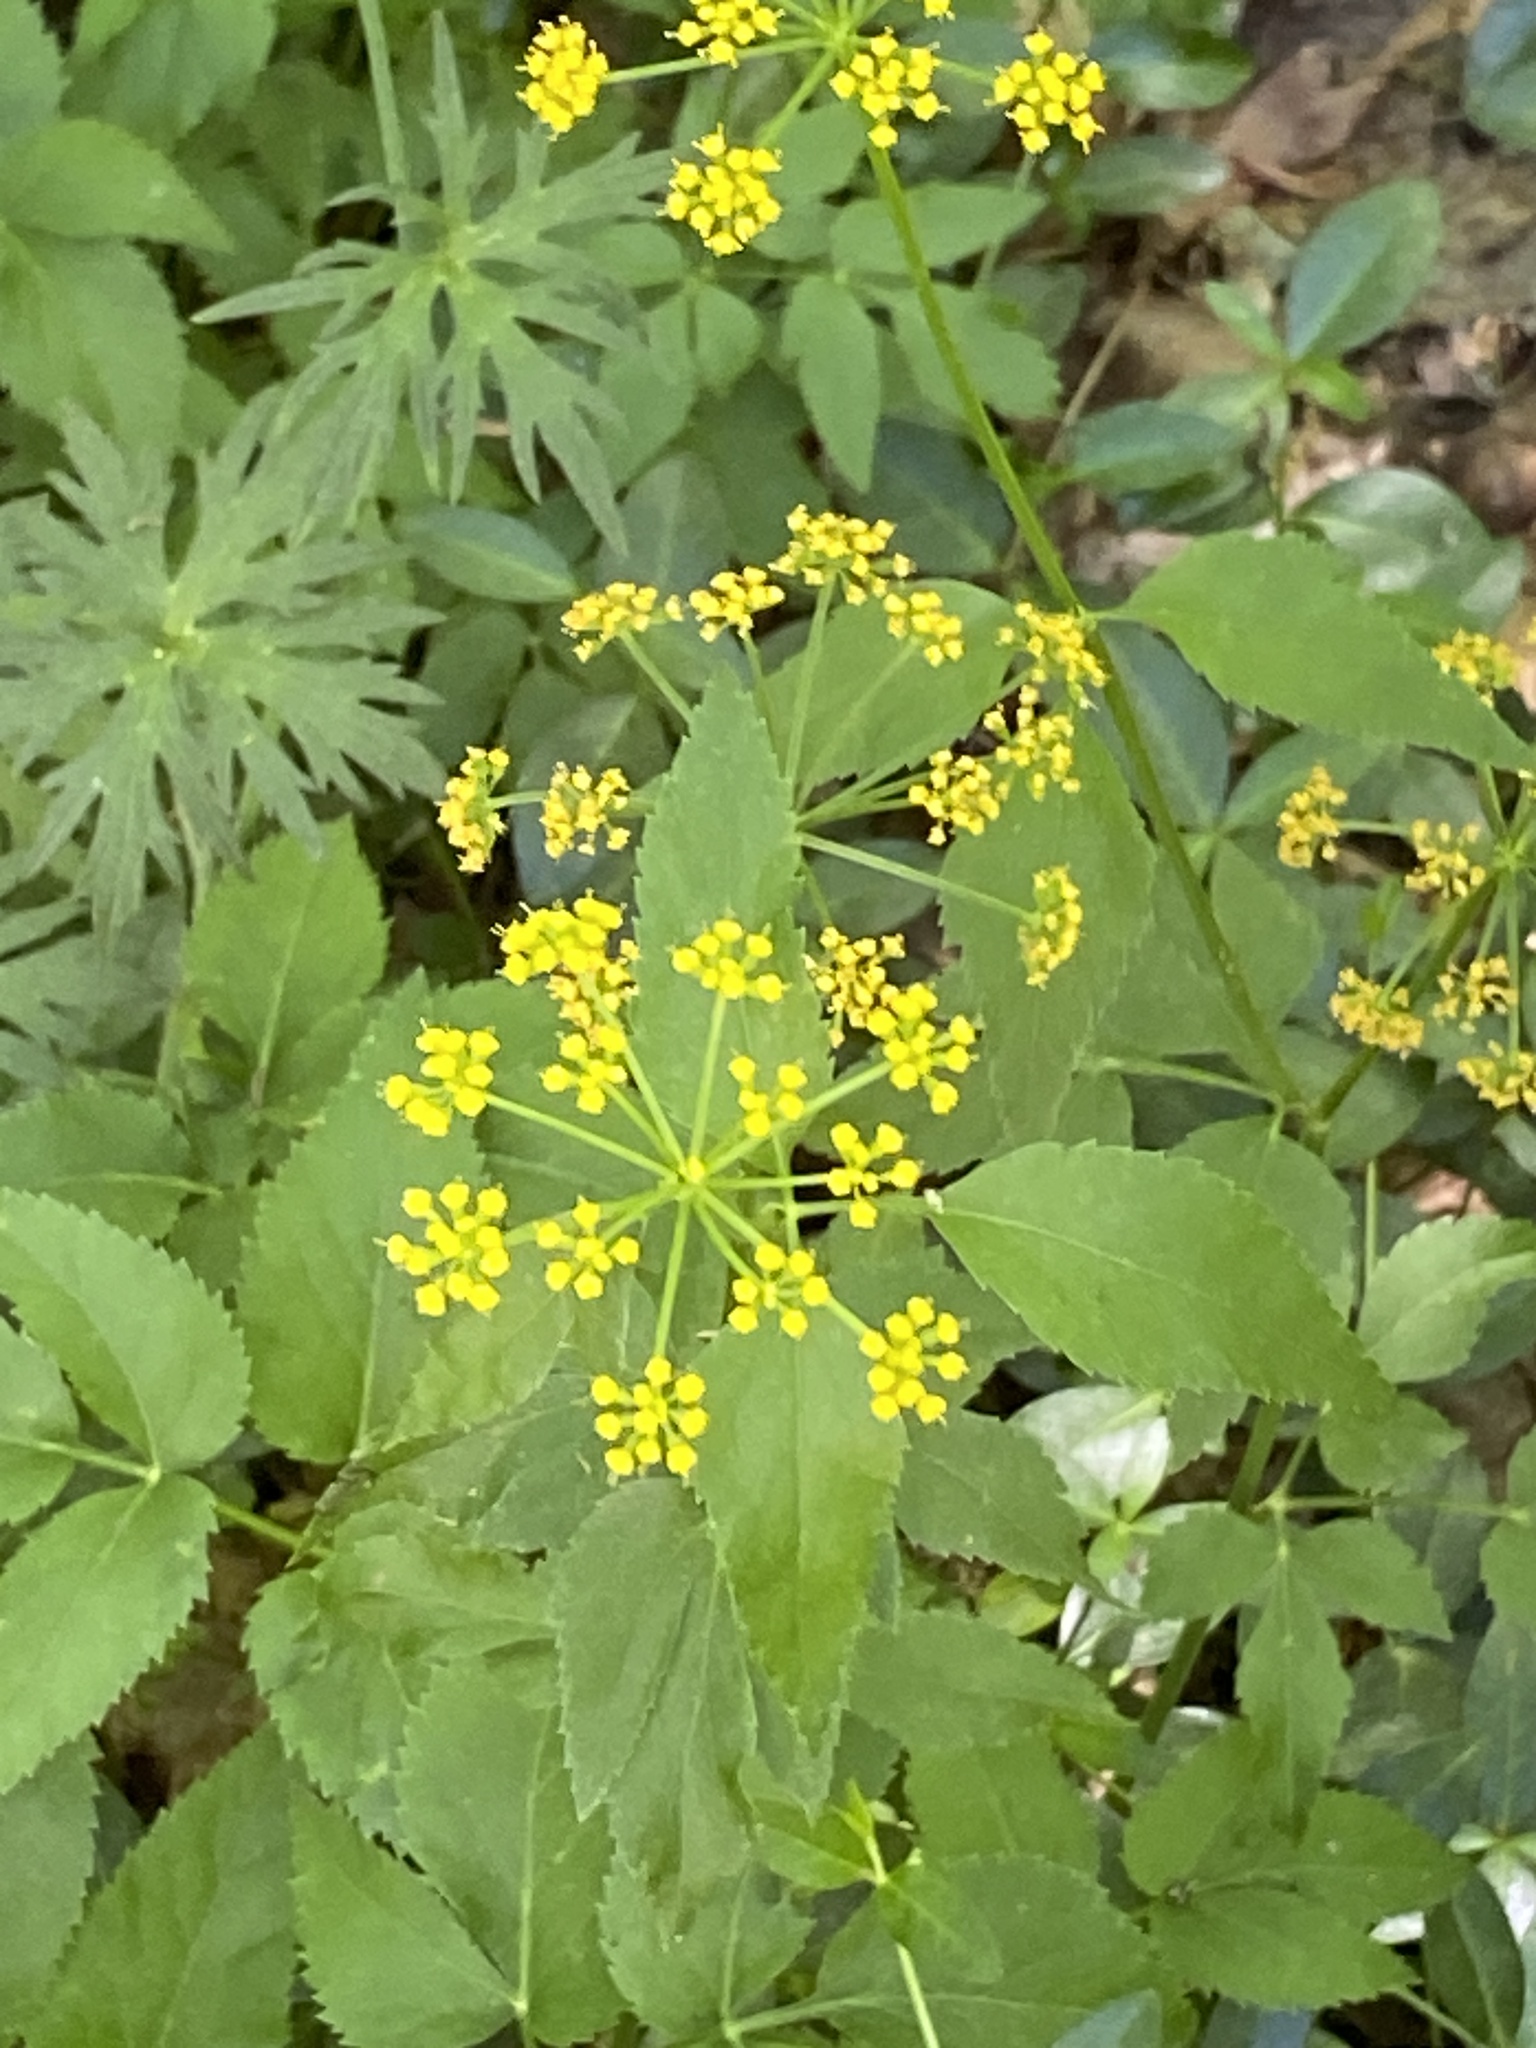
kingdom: Plantae
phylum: Tracheophyta
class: Magnoliopsida
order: Apiales
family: Apiaceae
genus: Zizia
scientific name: Zizia aurea
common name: Golden alexanders
